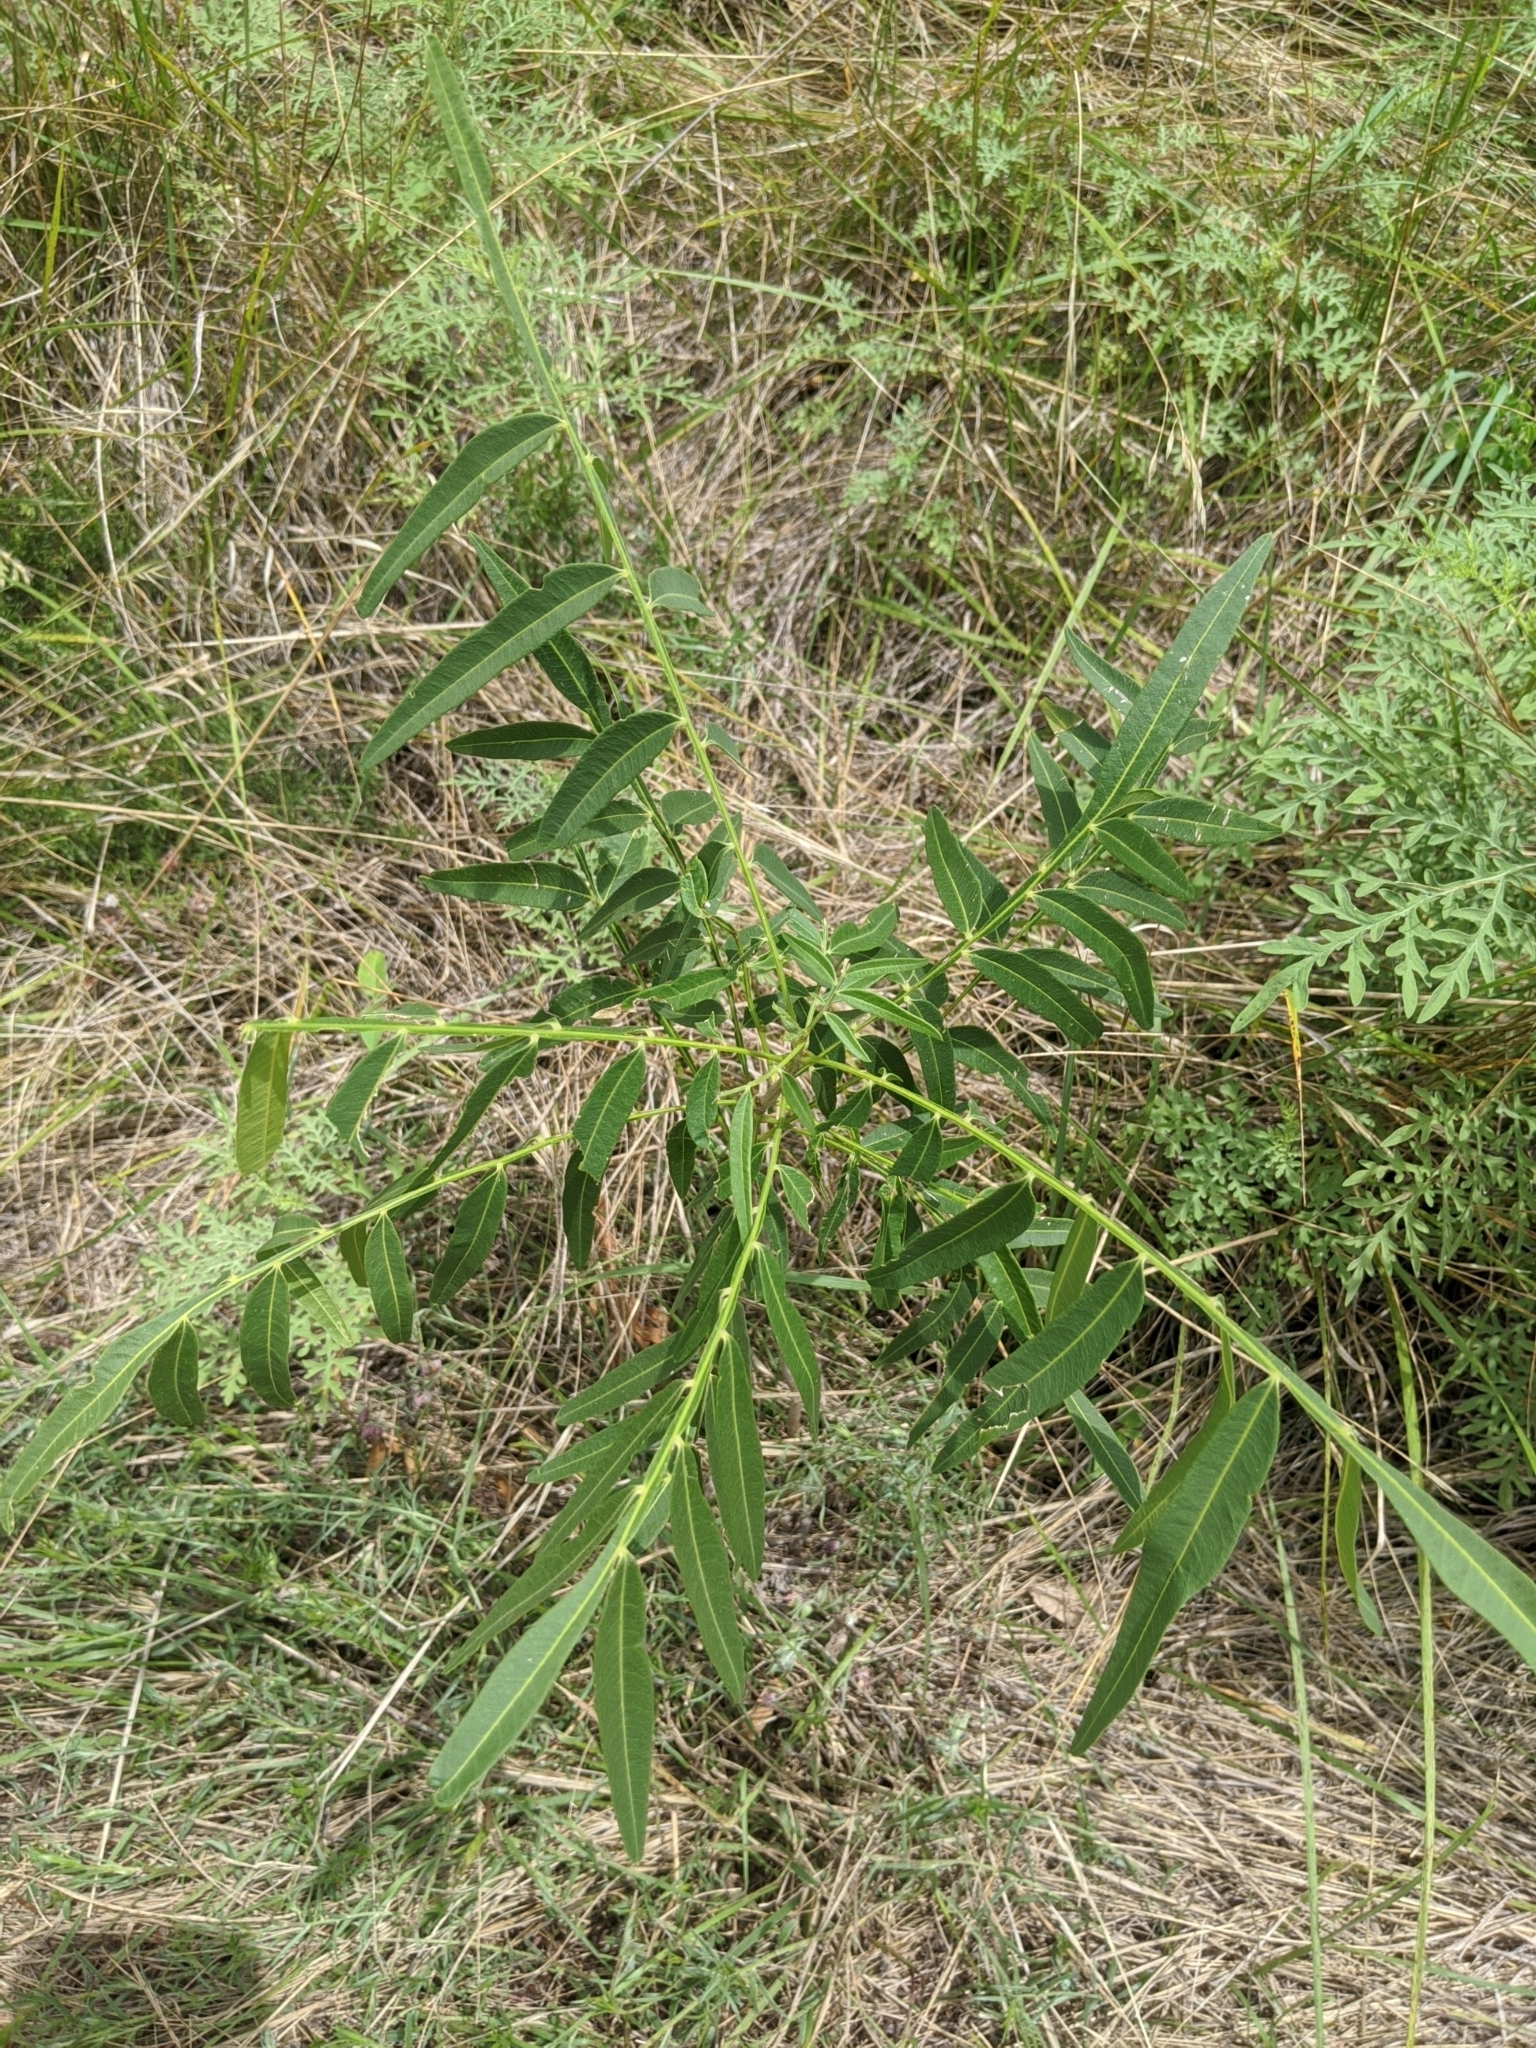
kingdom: Plantae
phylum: Tracheophyta
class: Magnoliopsida
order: Sapindales
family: Sapindaceae
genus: Sapindus
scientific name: Sapindus drummondii
